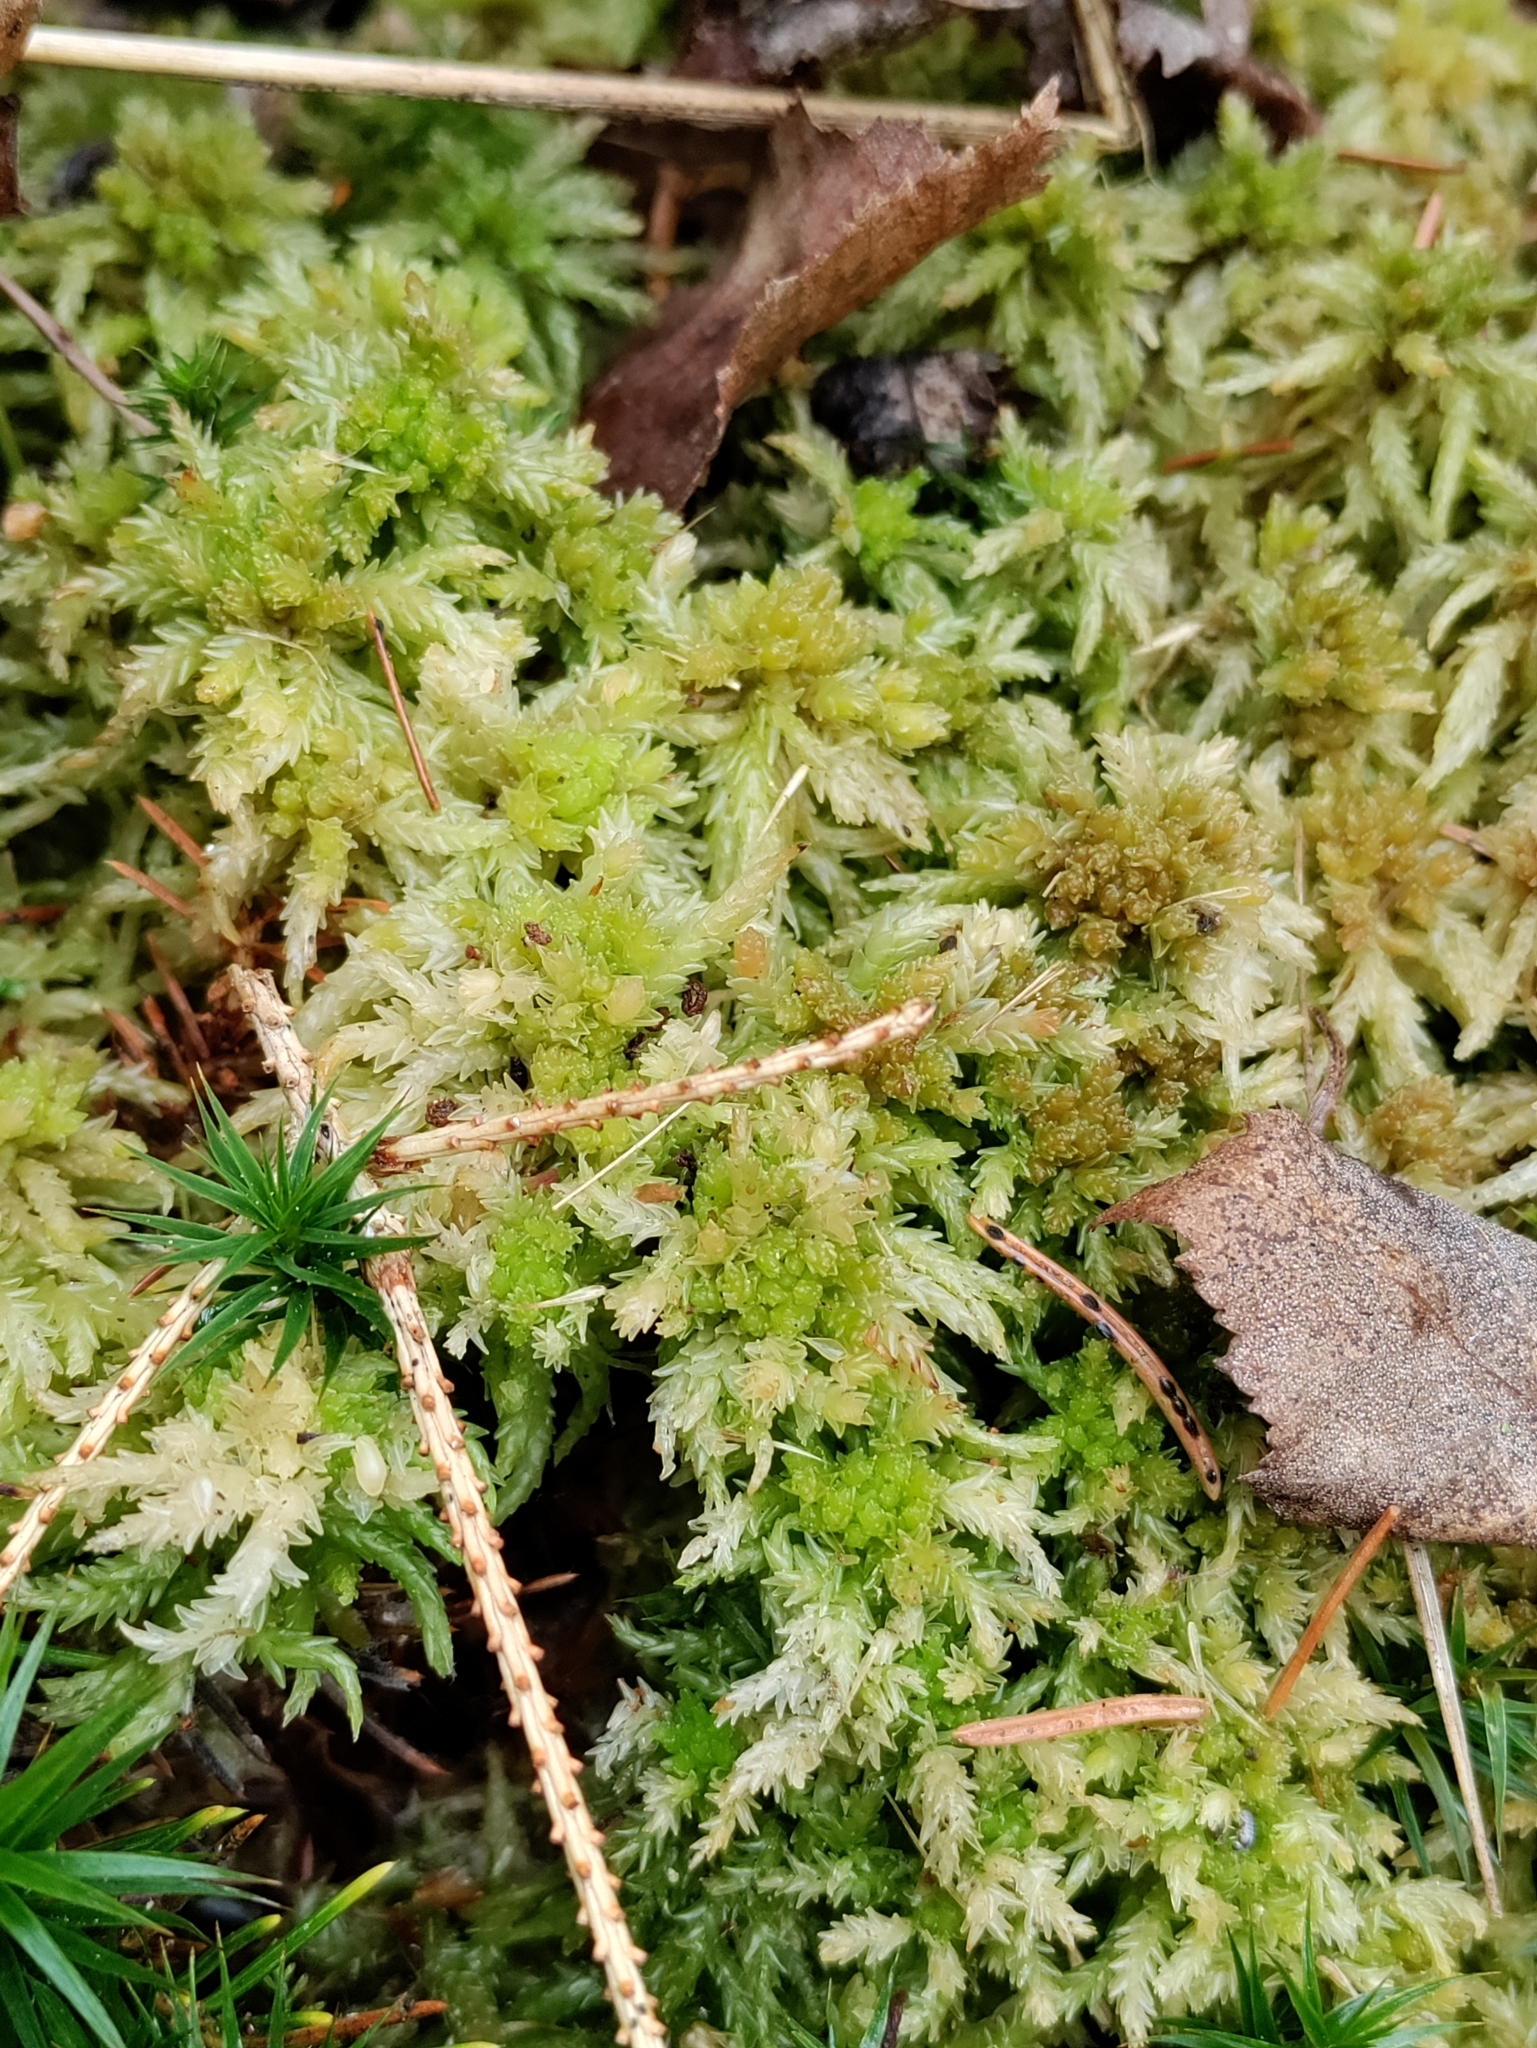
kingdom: Plantae
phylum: Bryophyta
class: Sphagnopsida
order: Sphagnales
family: Sphagnaceae
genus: Sphagnum
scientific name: Sphagnum palustre
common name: Blunt-leaved bog-moss
